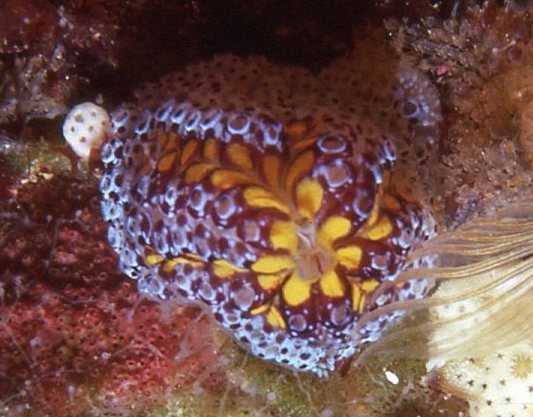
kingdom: Animalia
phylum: Chordata
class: Ascidiacea
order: Stolidobranchia
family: Styelidae
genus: Botrylloides
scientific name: Botrylloides magnicoecus
